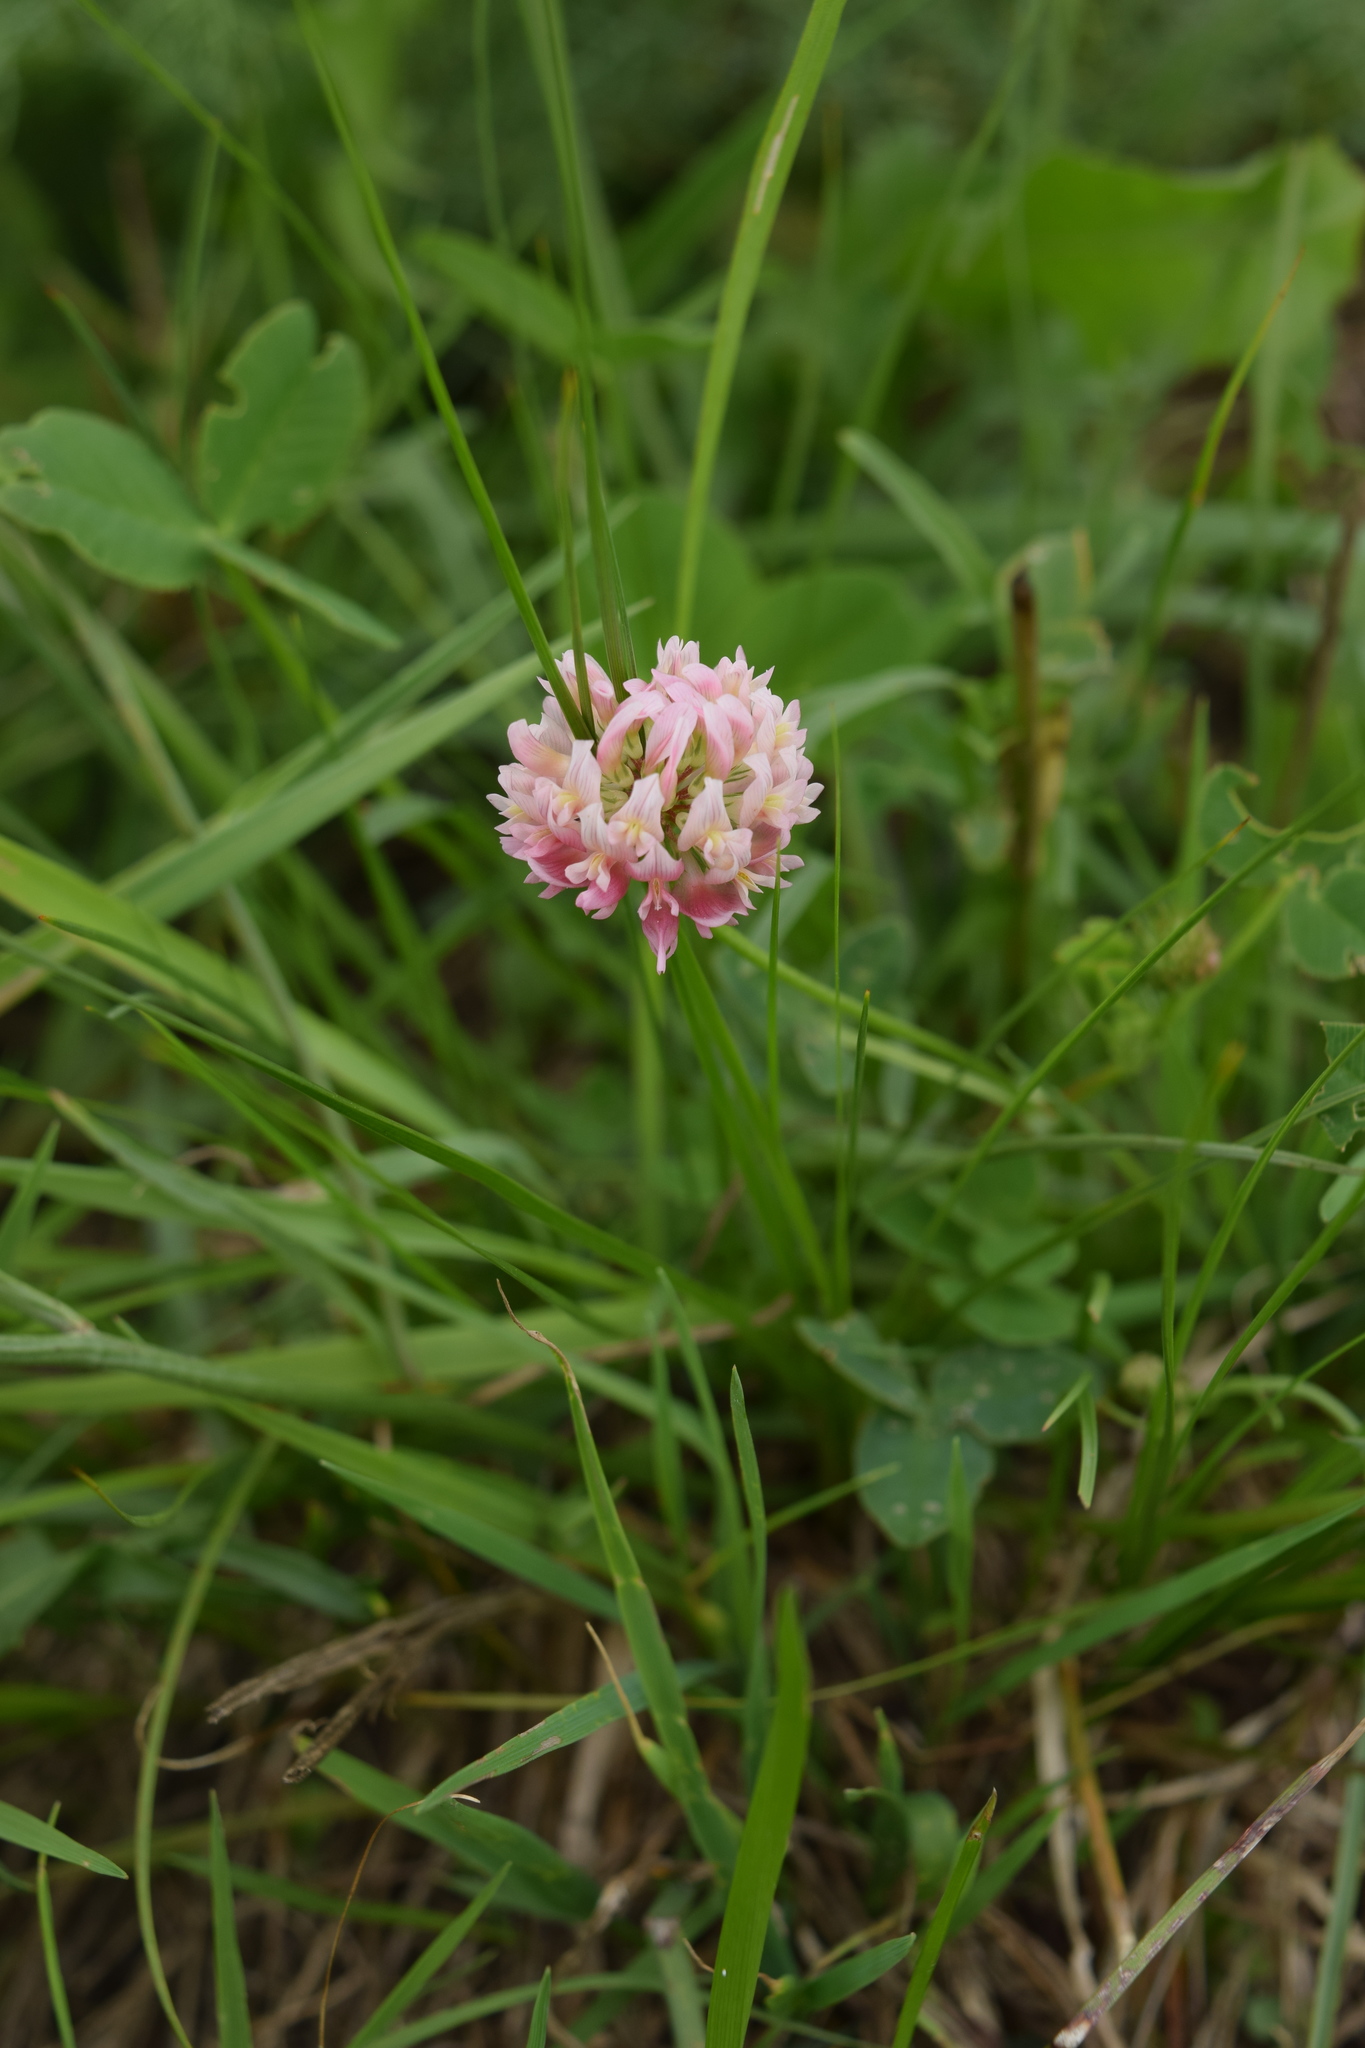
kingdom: Plantae
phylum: Tracheophyta
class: Magnoliopsida
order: Fabales
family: Fabaceae
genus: Trifolium
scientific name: Trifolium hybridum
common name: Alsike clover
